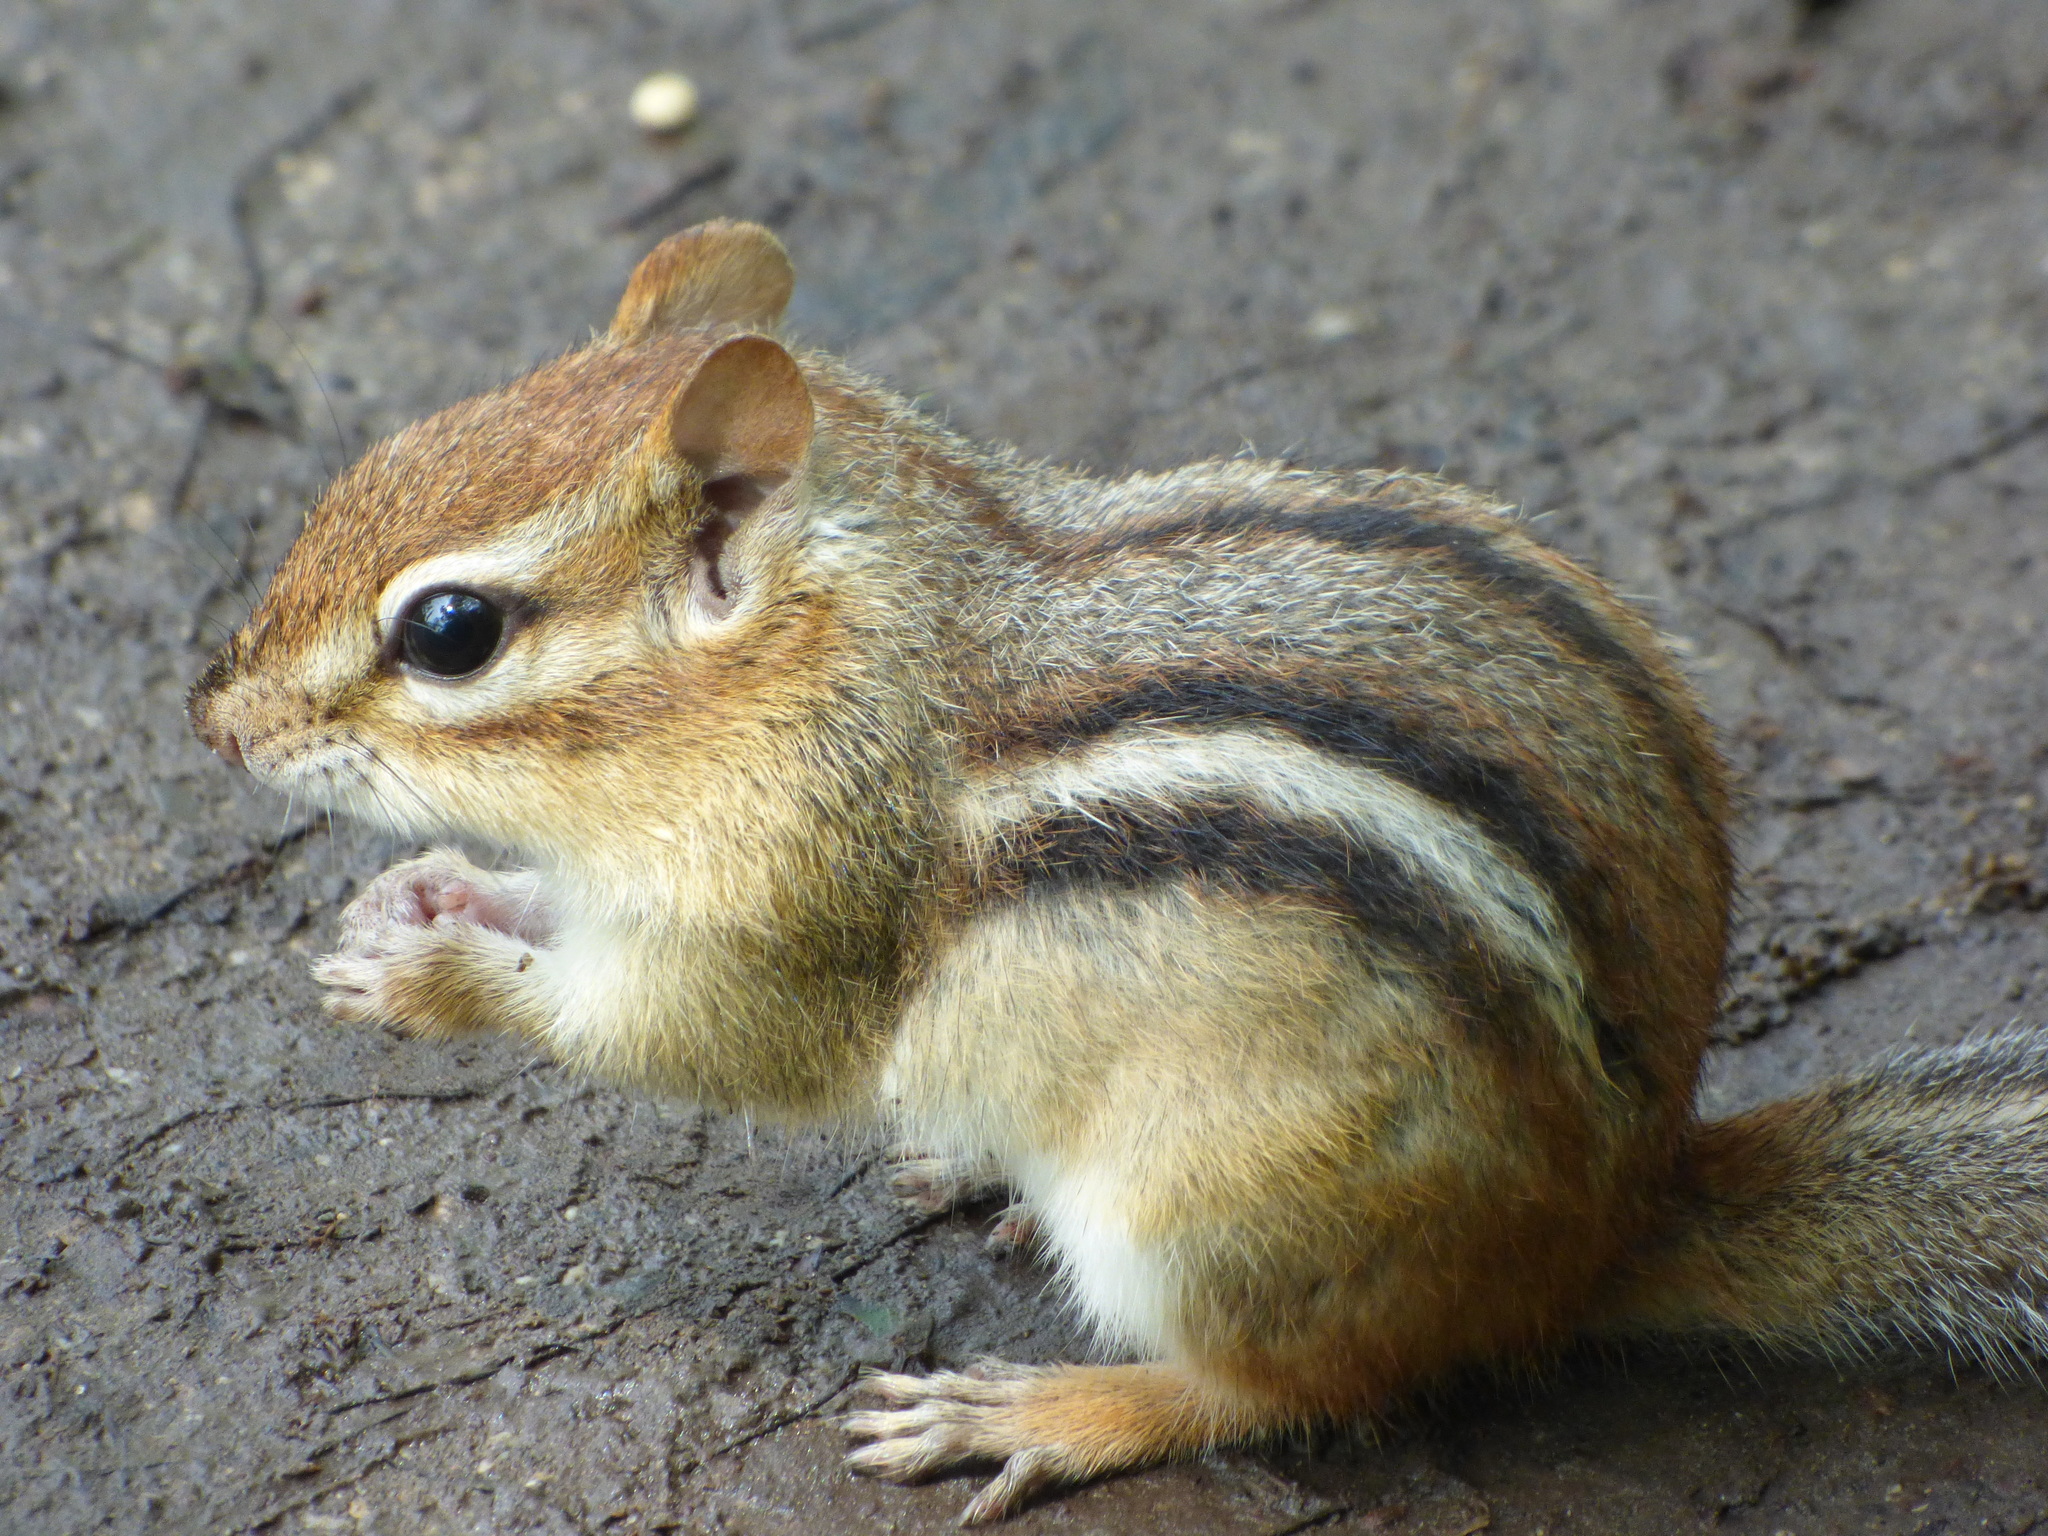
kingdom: Animalia
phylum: Chordata
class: Mammalia
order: Rodentia
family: Sciuridae
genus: Tamias
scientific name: Tamias striatus
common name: Eastern chipmunk
